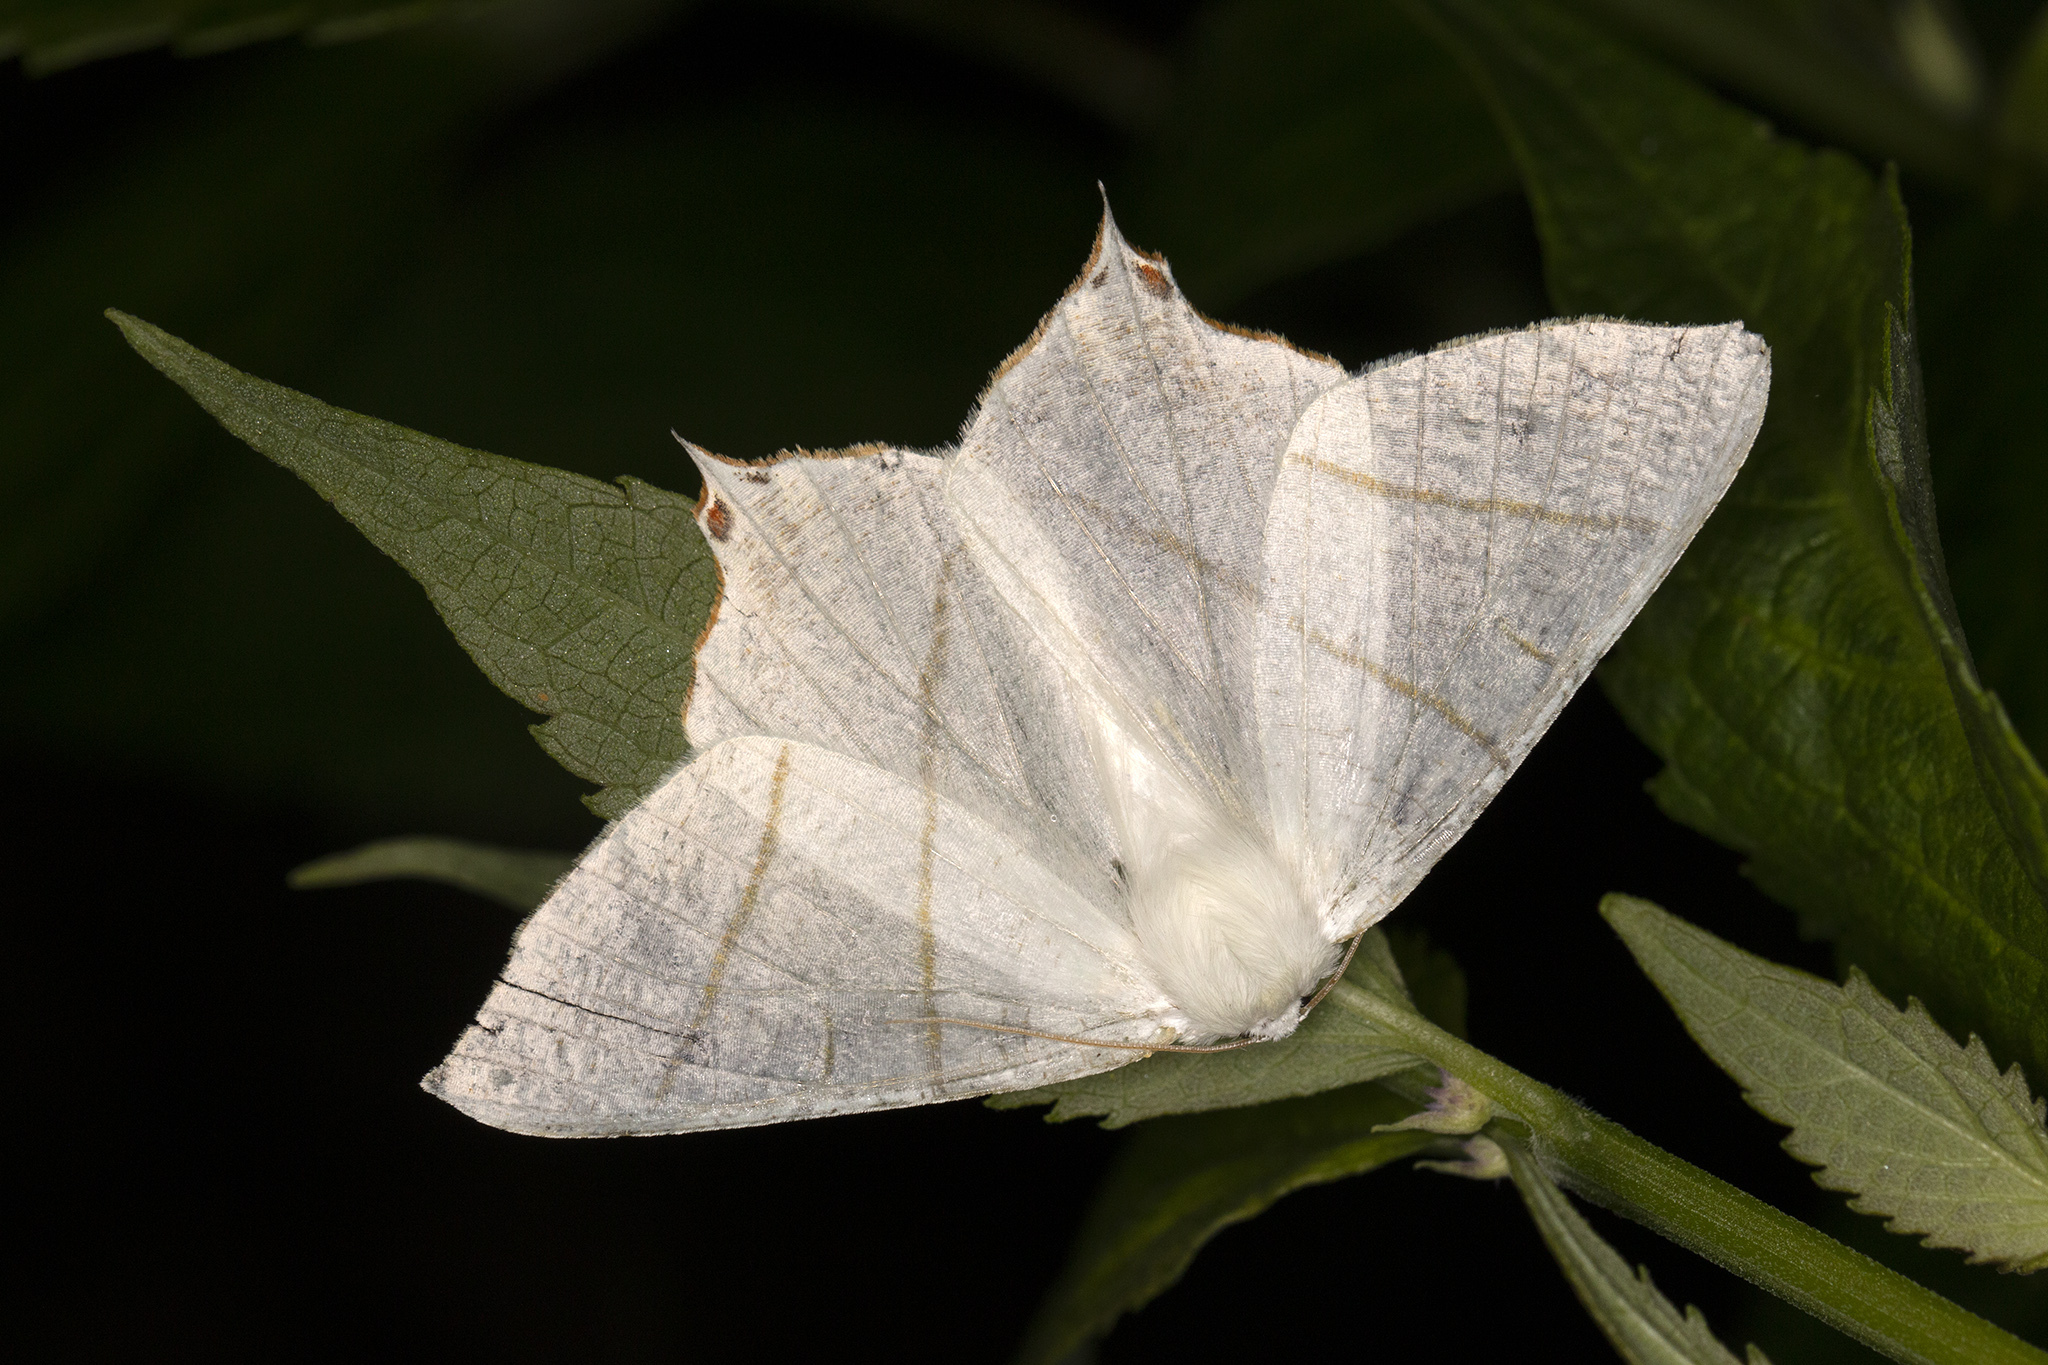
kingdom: Animalia
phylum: Arthropoda
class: Insecta
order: Lepidoptera
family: Geometridae
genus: Ourapteryx
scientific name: Ourapteryx sambucaria
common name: Swallow-tailed moth
